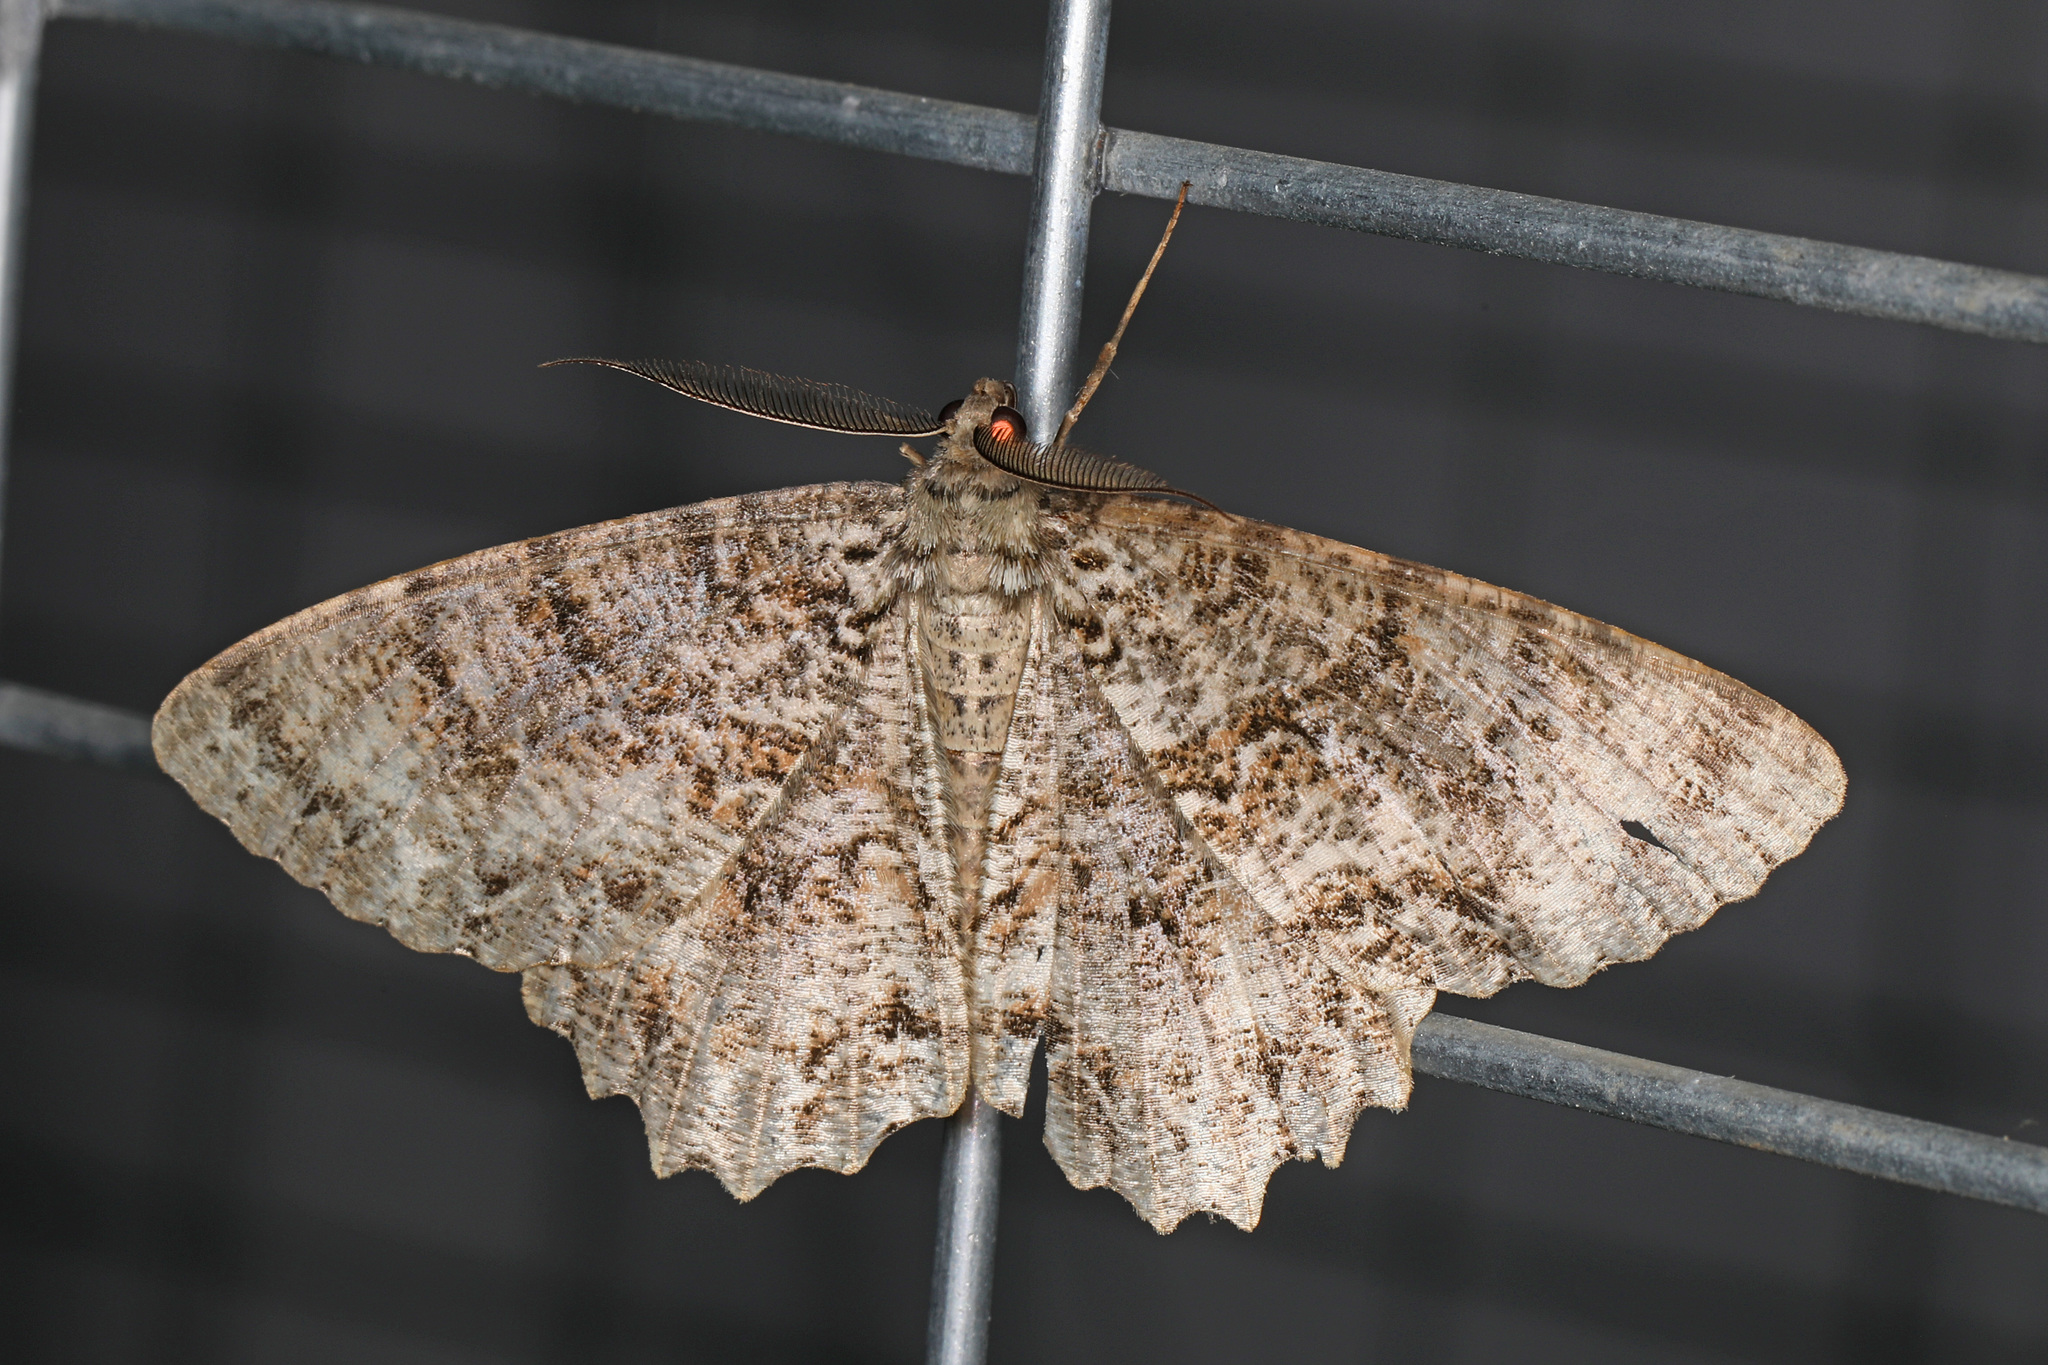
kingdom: Animalia
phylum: Arthropoda
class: Insecta
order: Lepidoptera
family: Geometridae
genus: Epimecis
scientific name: Epimecis hortaria
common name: Tulip-tree beauty
